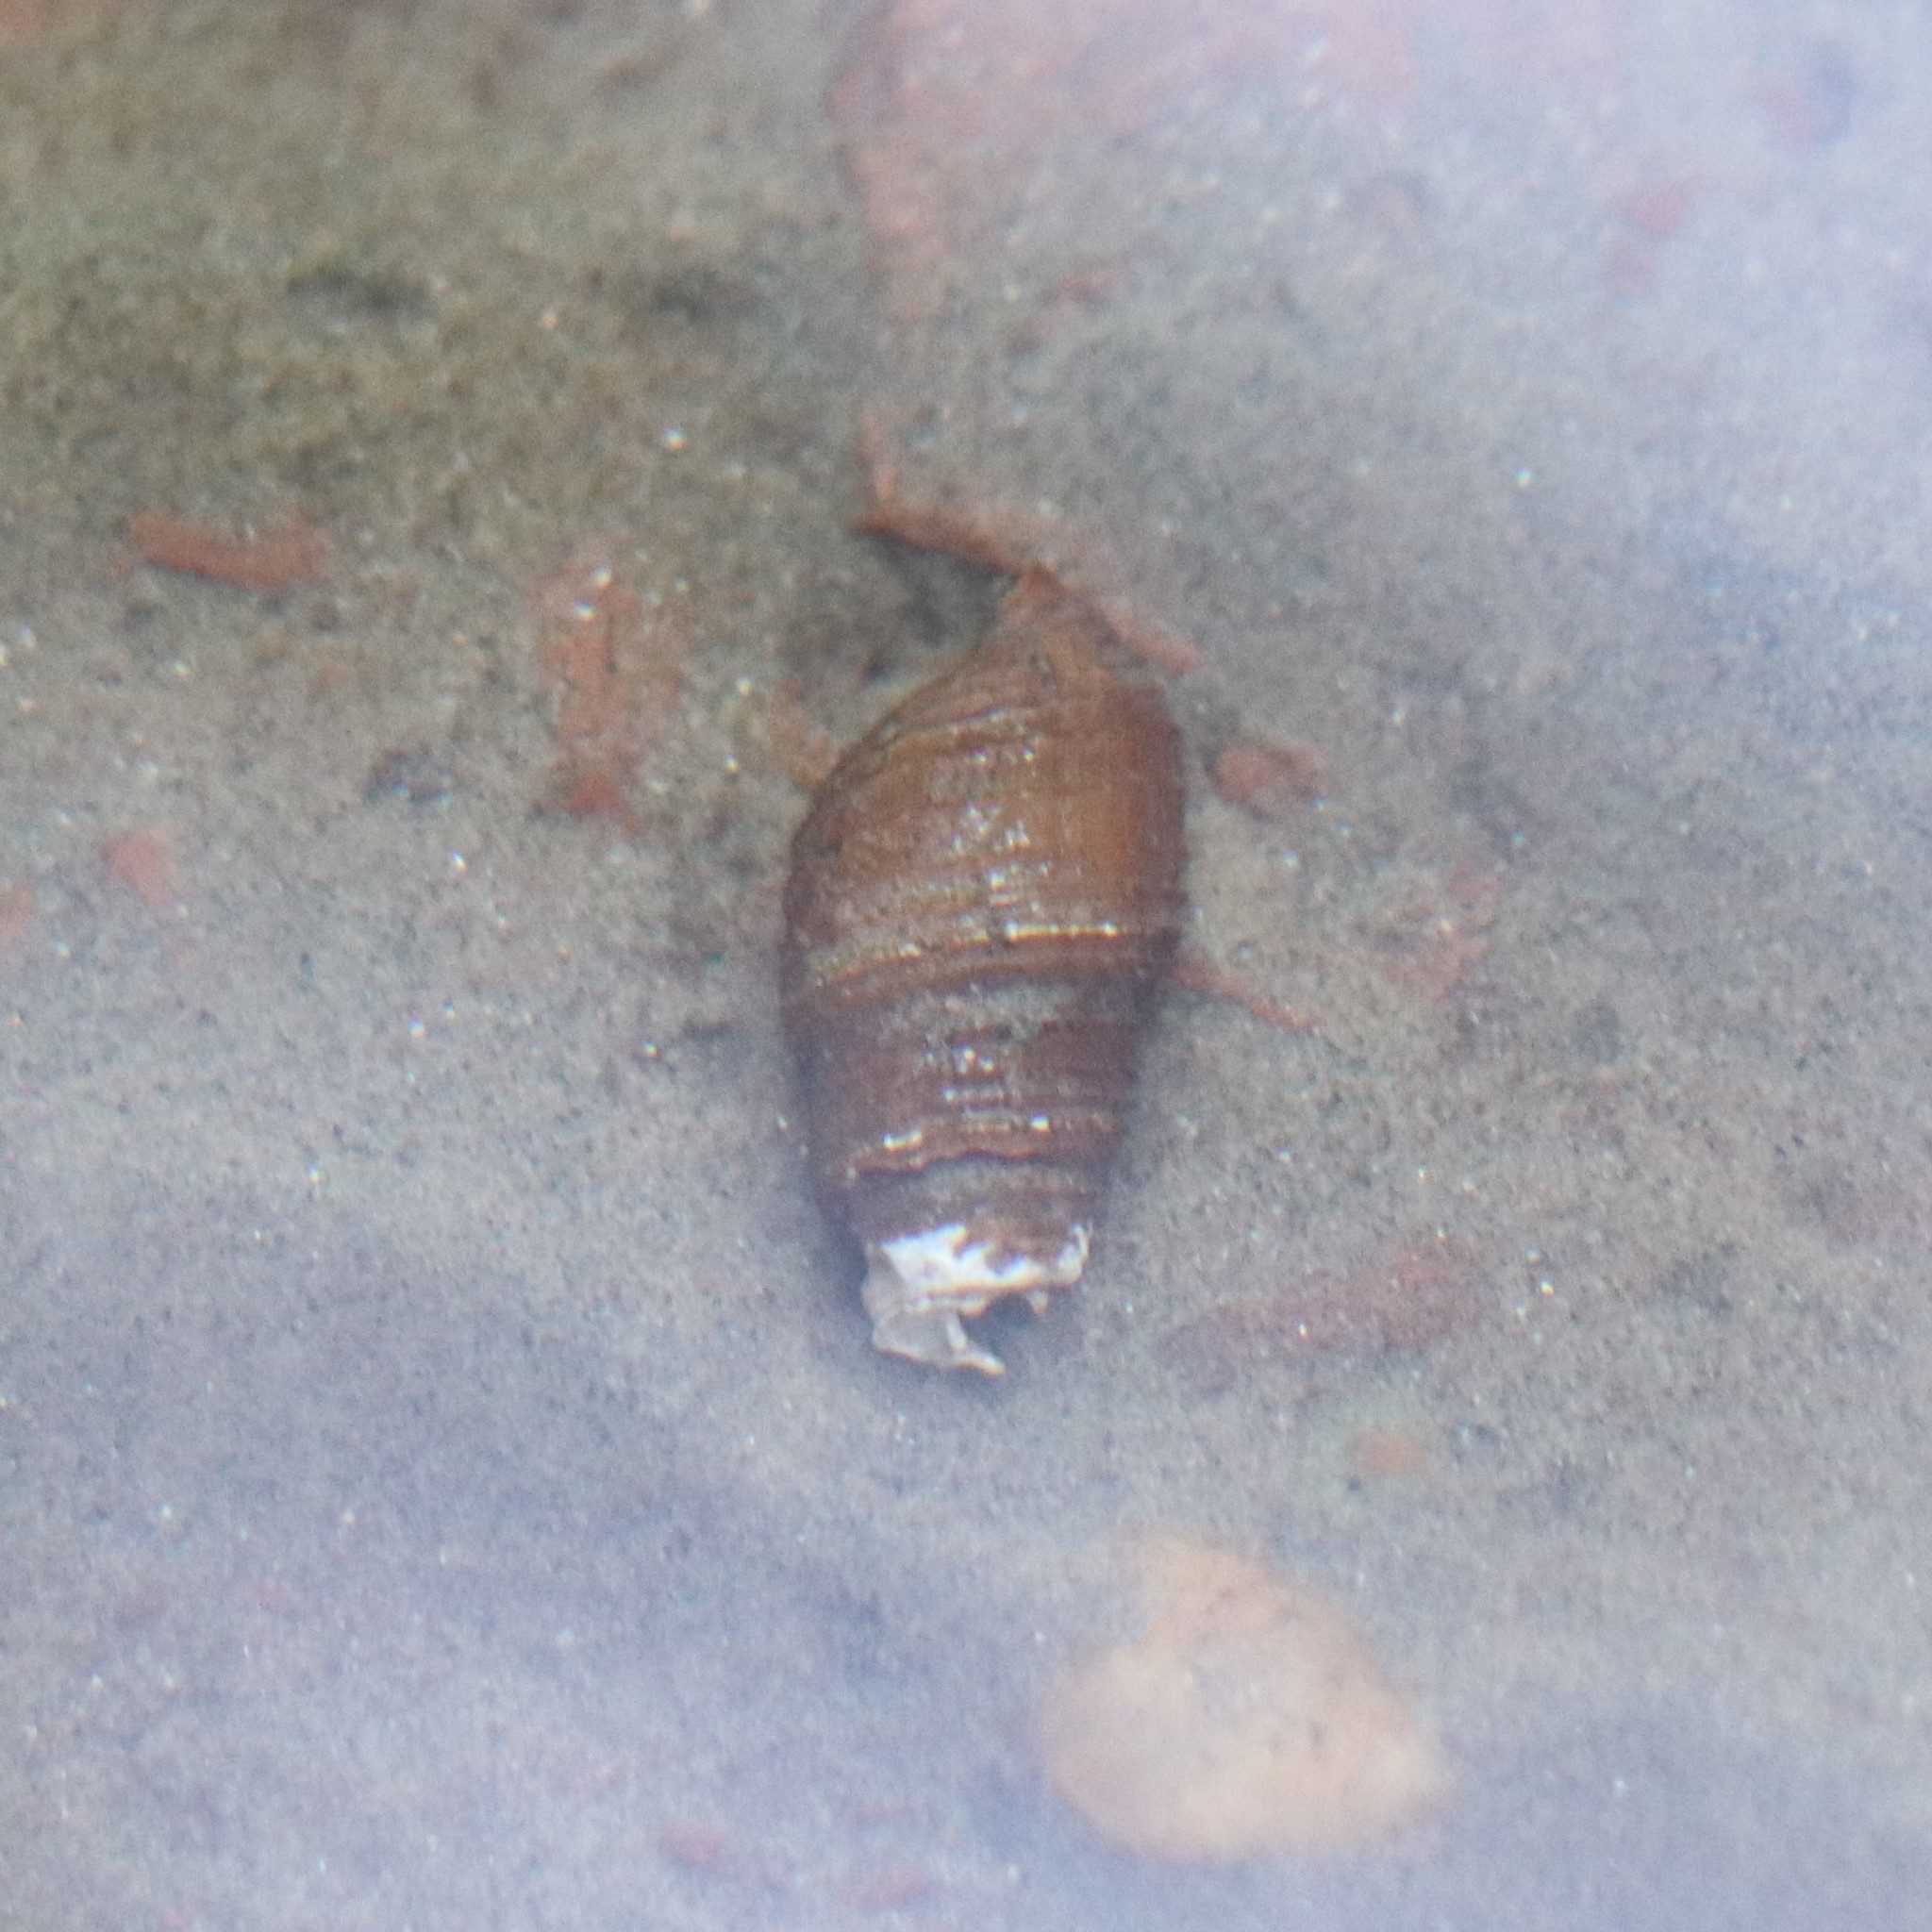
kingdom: Animalia
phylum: Mollusca
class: Gastropoda
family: Pleuroceridae
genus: Elimia
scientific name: Elimia virginica
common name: Piedmont elimia
